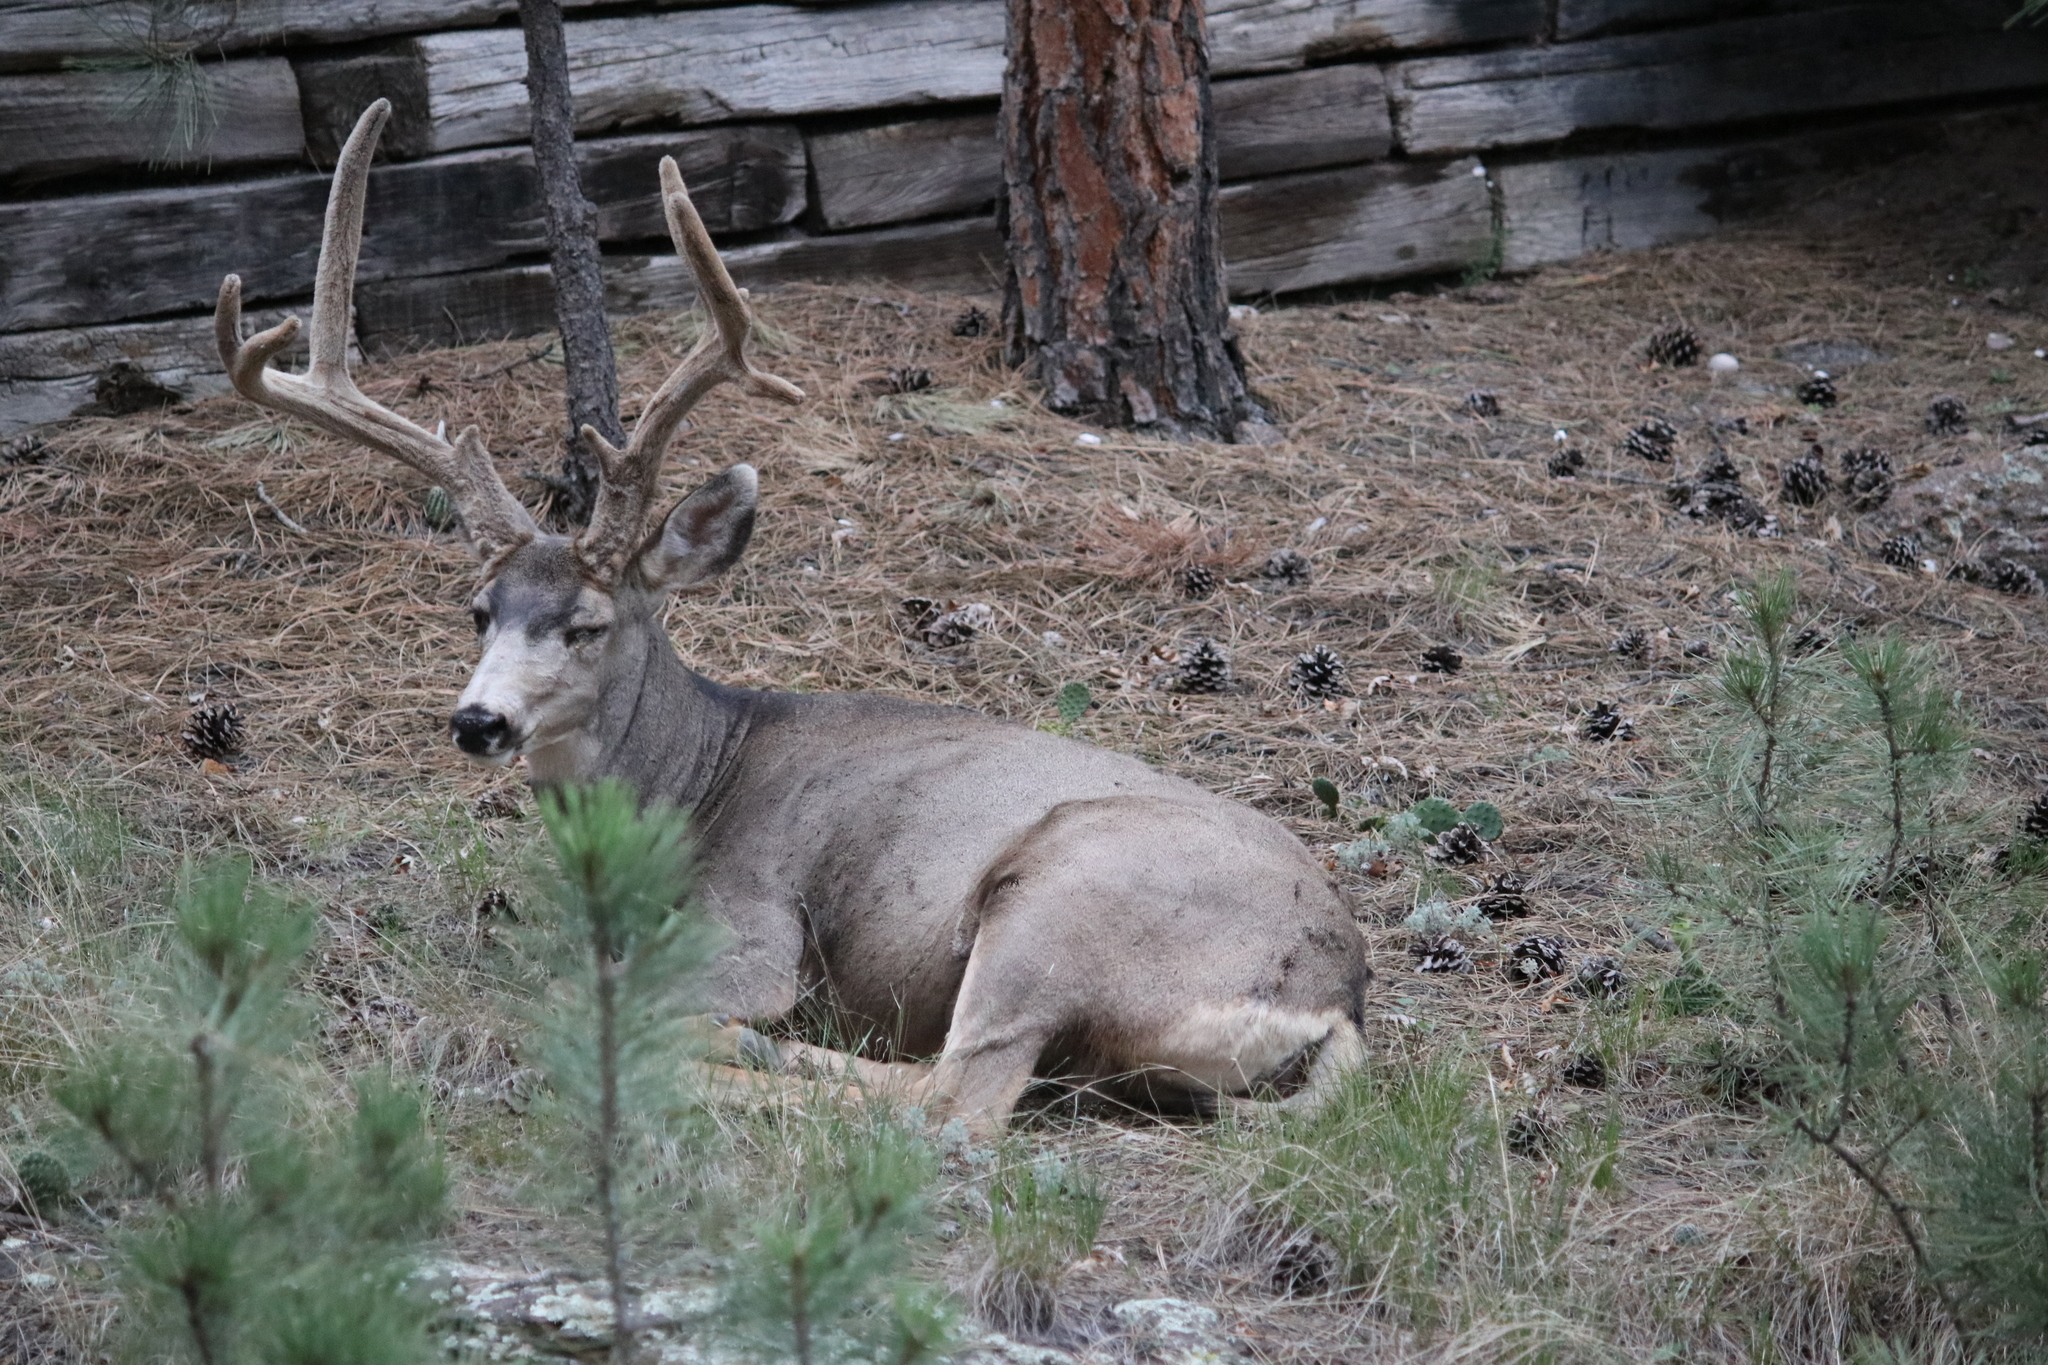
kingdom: Animalia
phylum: Chordata
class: Mammalia
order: Artiodactyla
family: Cervidae
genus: Odocoileus
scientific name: Odocoileus hemionus
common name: Mule deer
